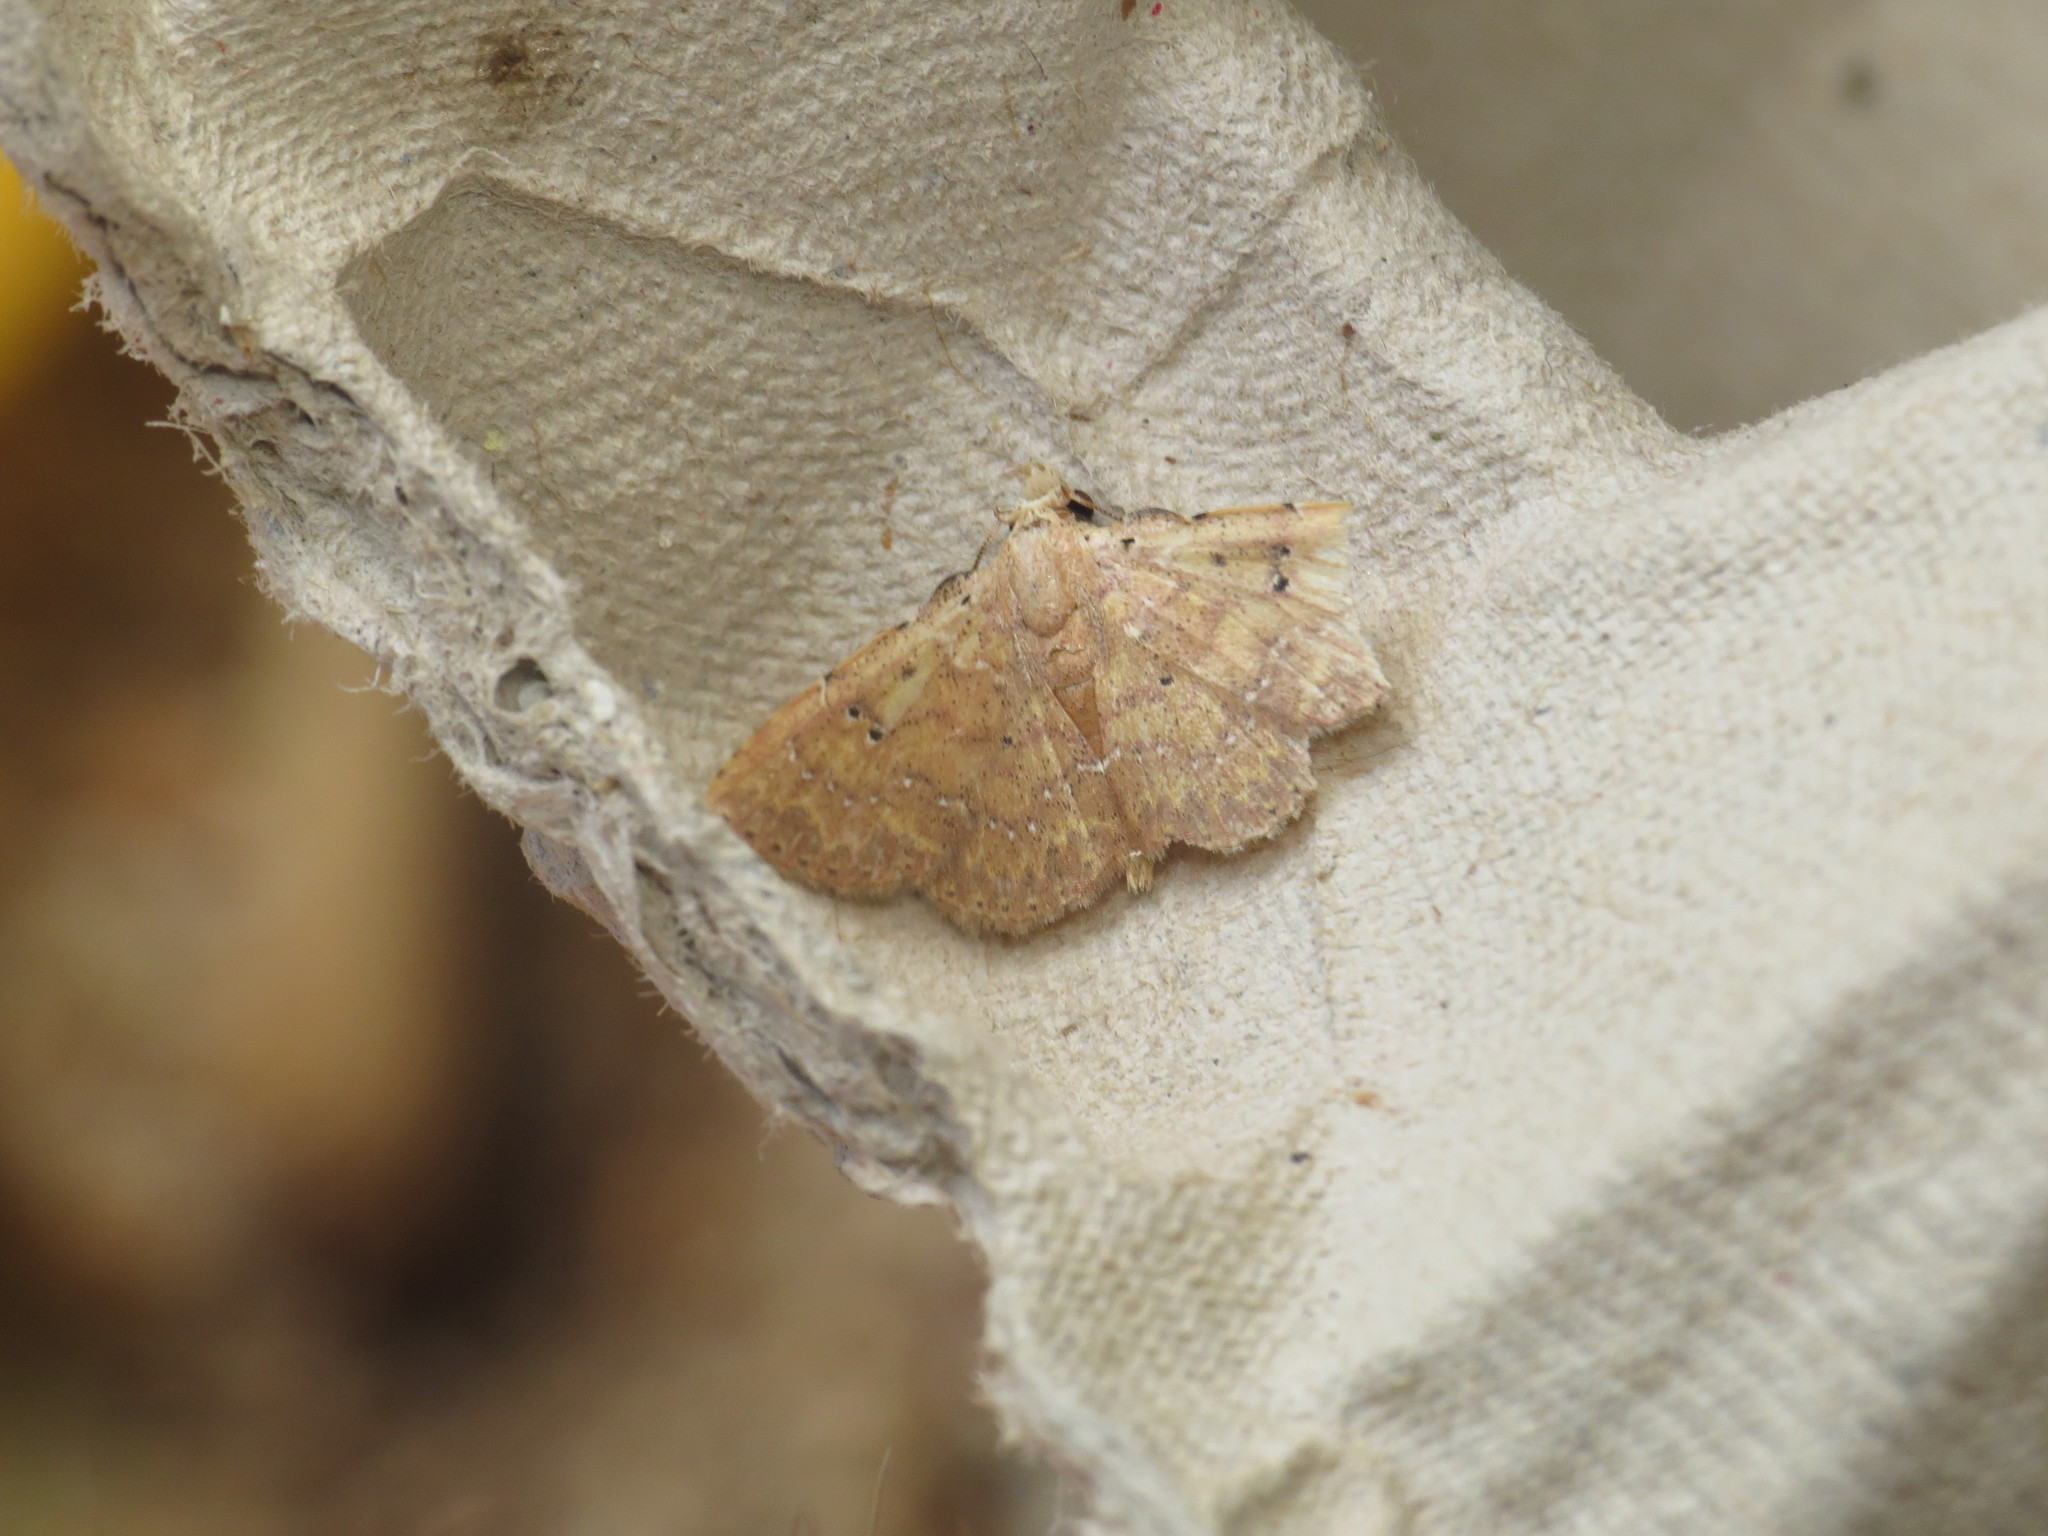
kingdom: Animalia
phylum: Arthropoda
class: Insecta
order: Lepidoptera
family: Noctuidae
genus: Cerynea
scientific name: Cerynea trogobasis
